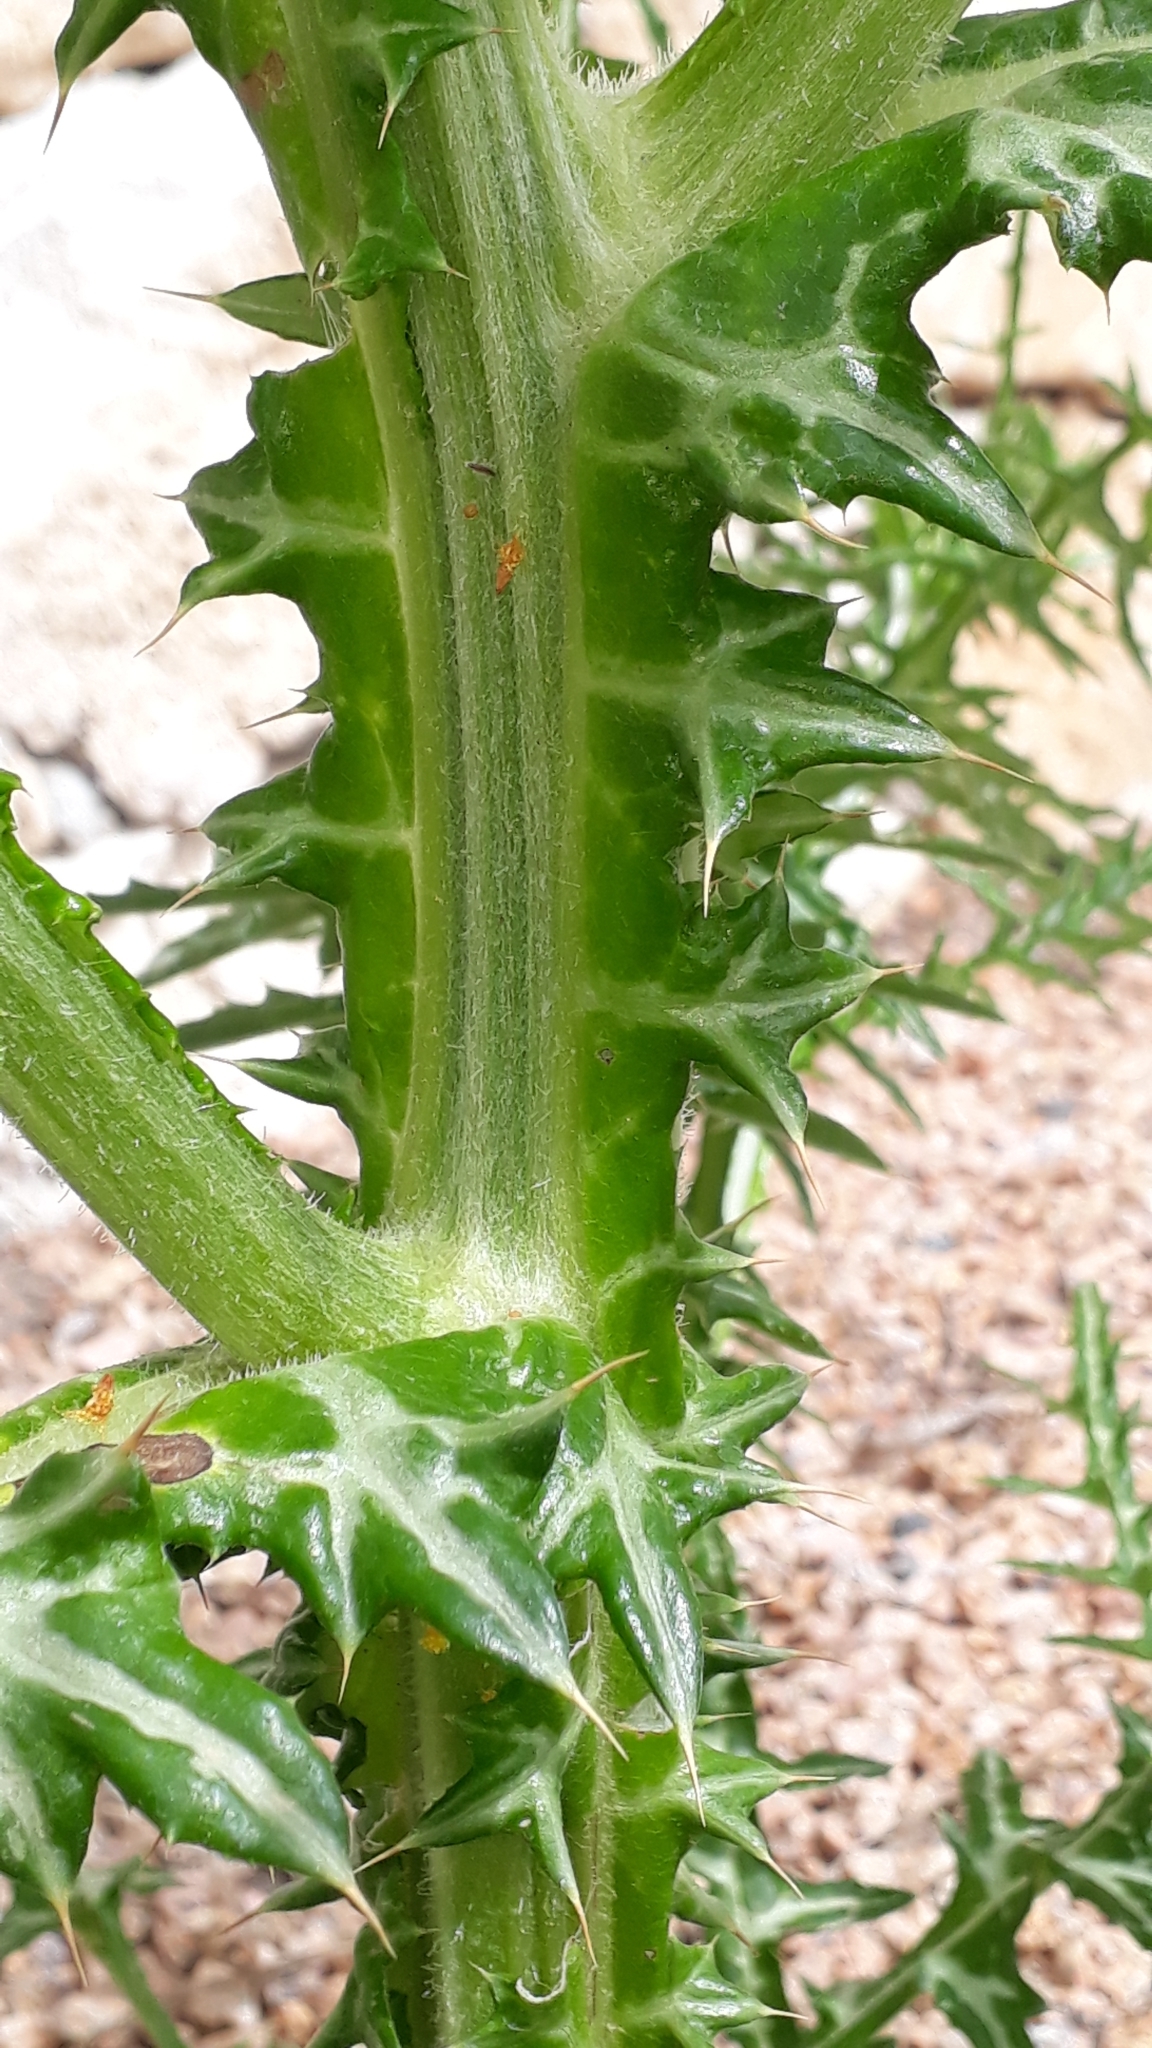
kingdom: Plantae
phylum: Tracheophyta
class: Magnoliopsida
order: Asterales
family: Asteraceae
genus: Galactites
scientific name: Galactites tomentosa
